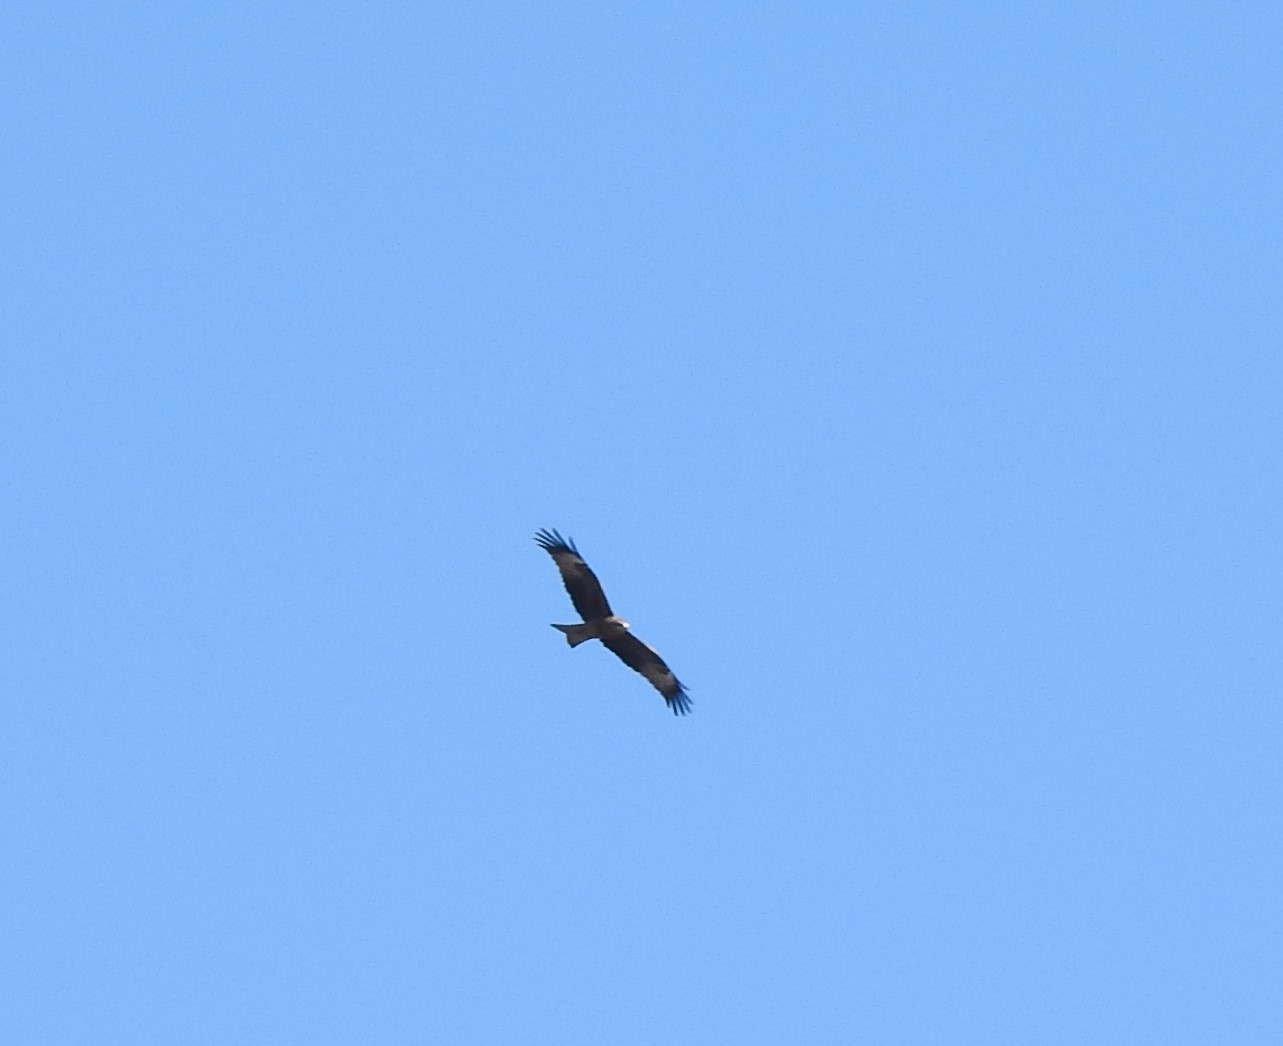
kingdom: Animalia
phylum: Chordata
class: Aves
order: Accipitriformes
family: Accipitridae
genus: Milvus
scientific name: Milvus migrans
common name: Black kite
